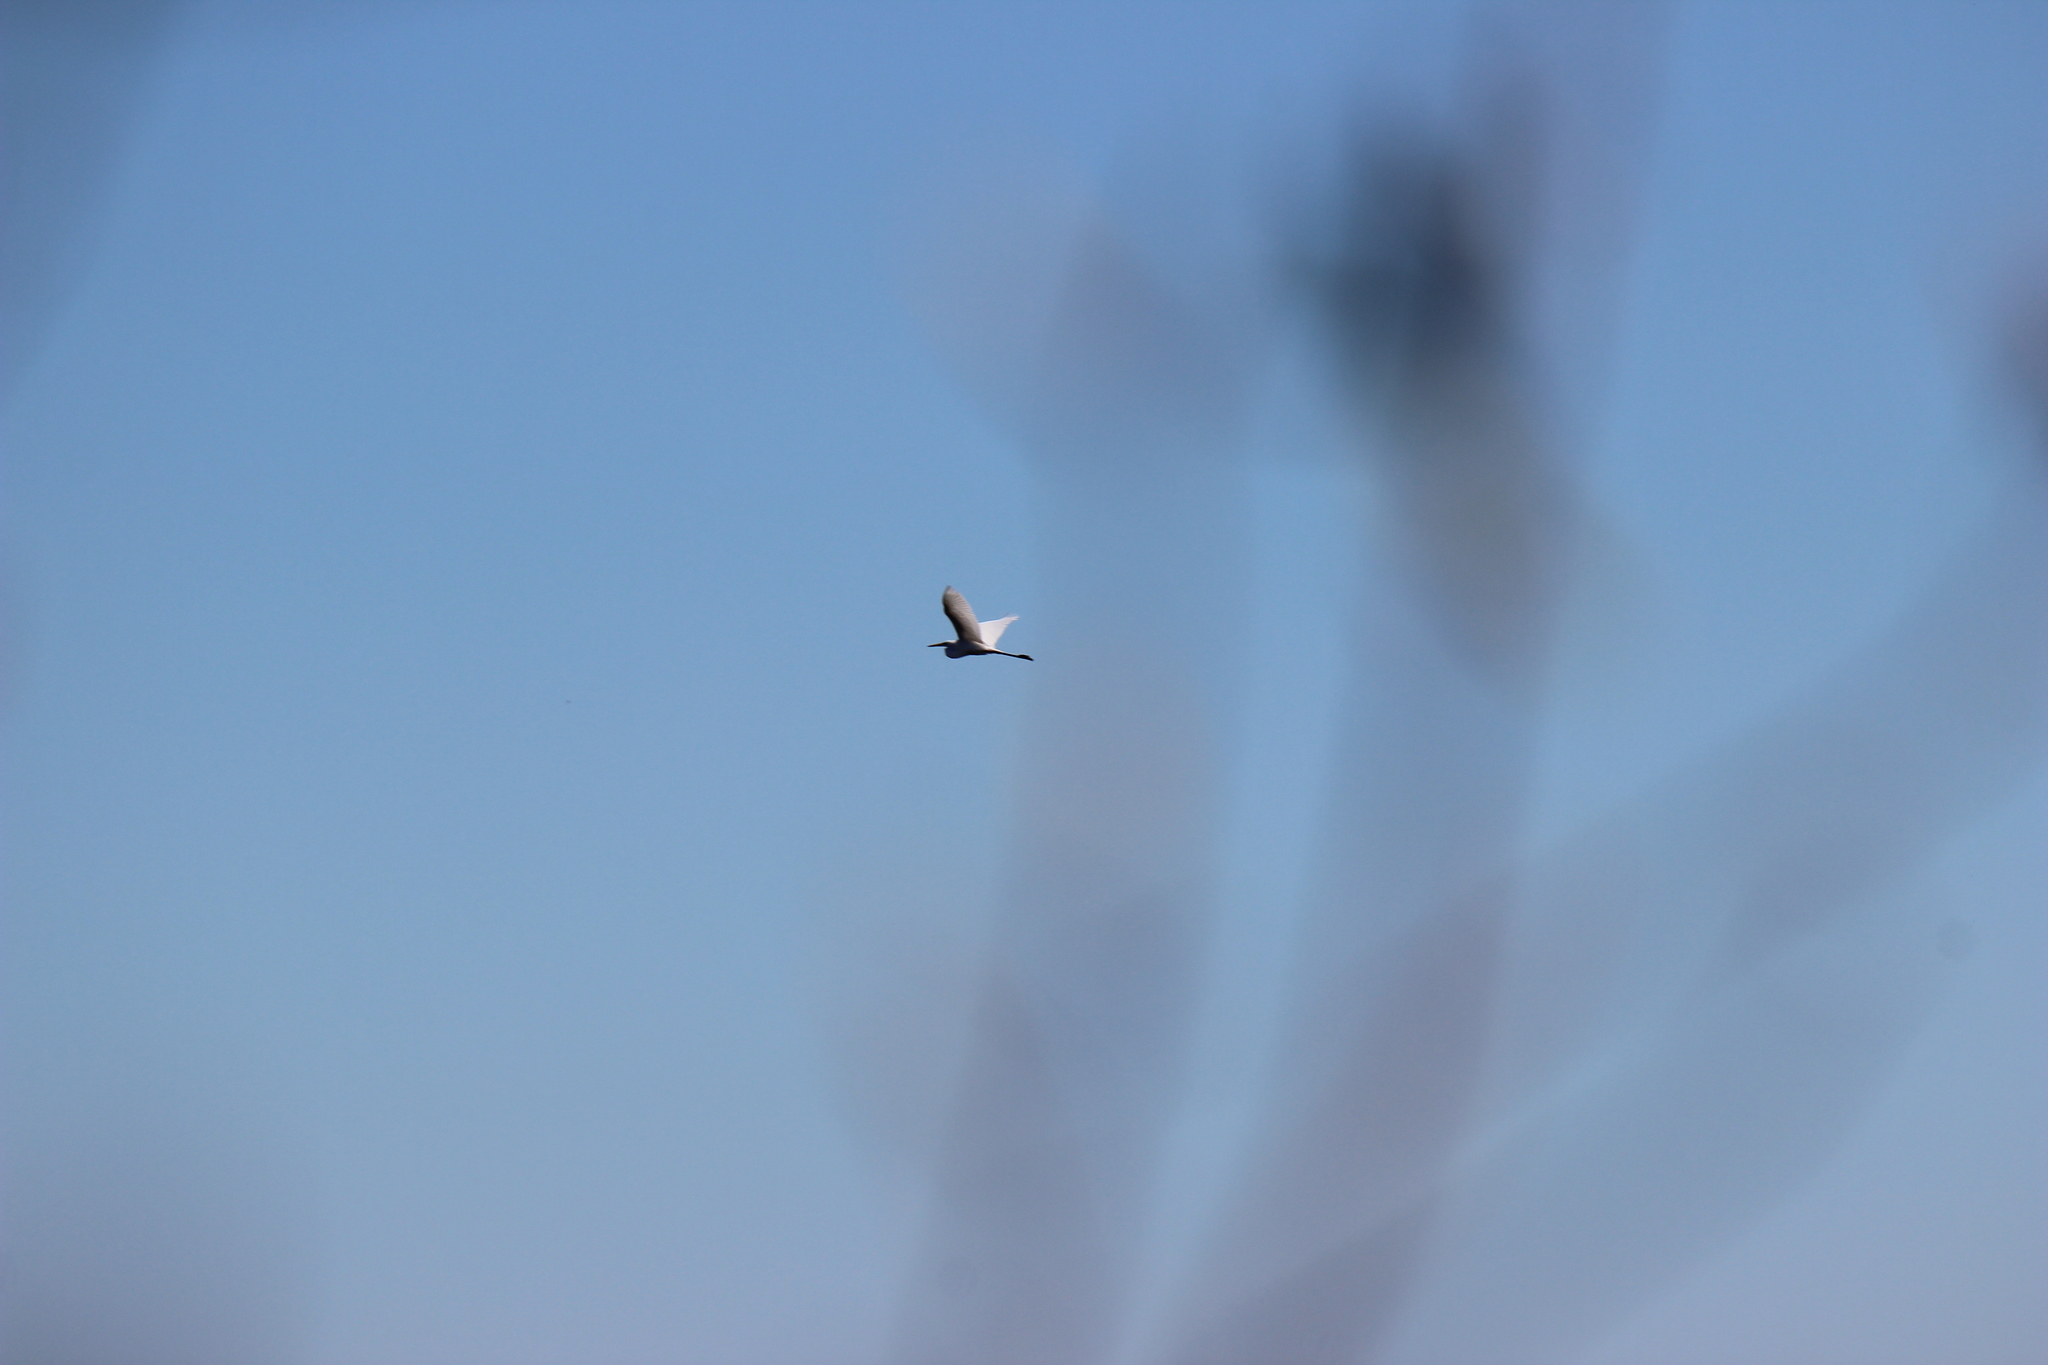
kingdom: Animalia
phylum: Chordata
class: Aves
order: Pelecaniformes
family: Ardeidae
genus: Ardea
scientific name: Ardea alba
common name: Great egret
